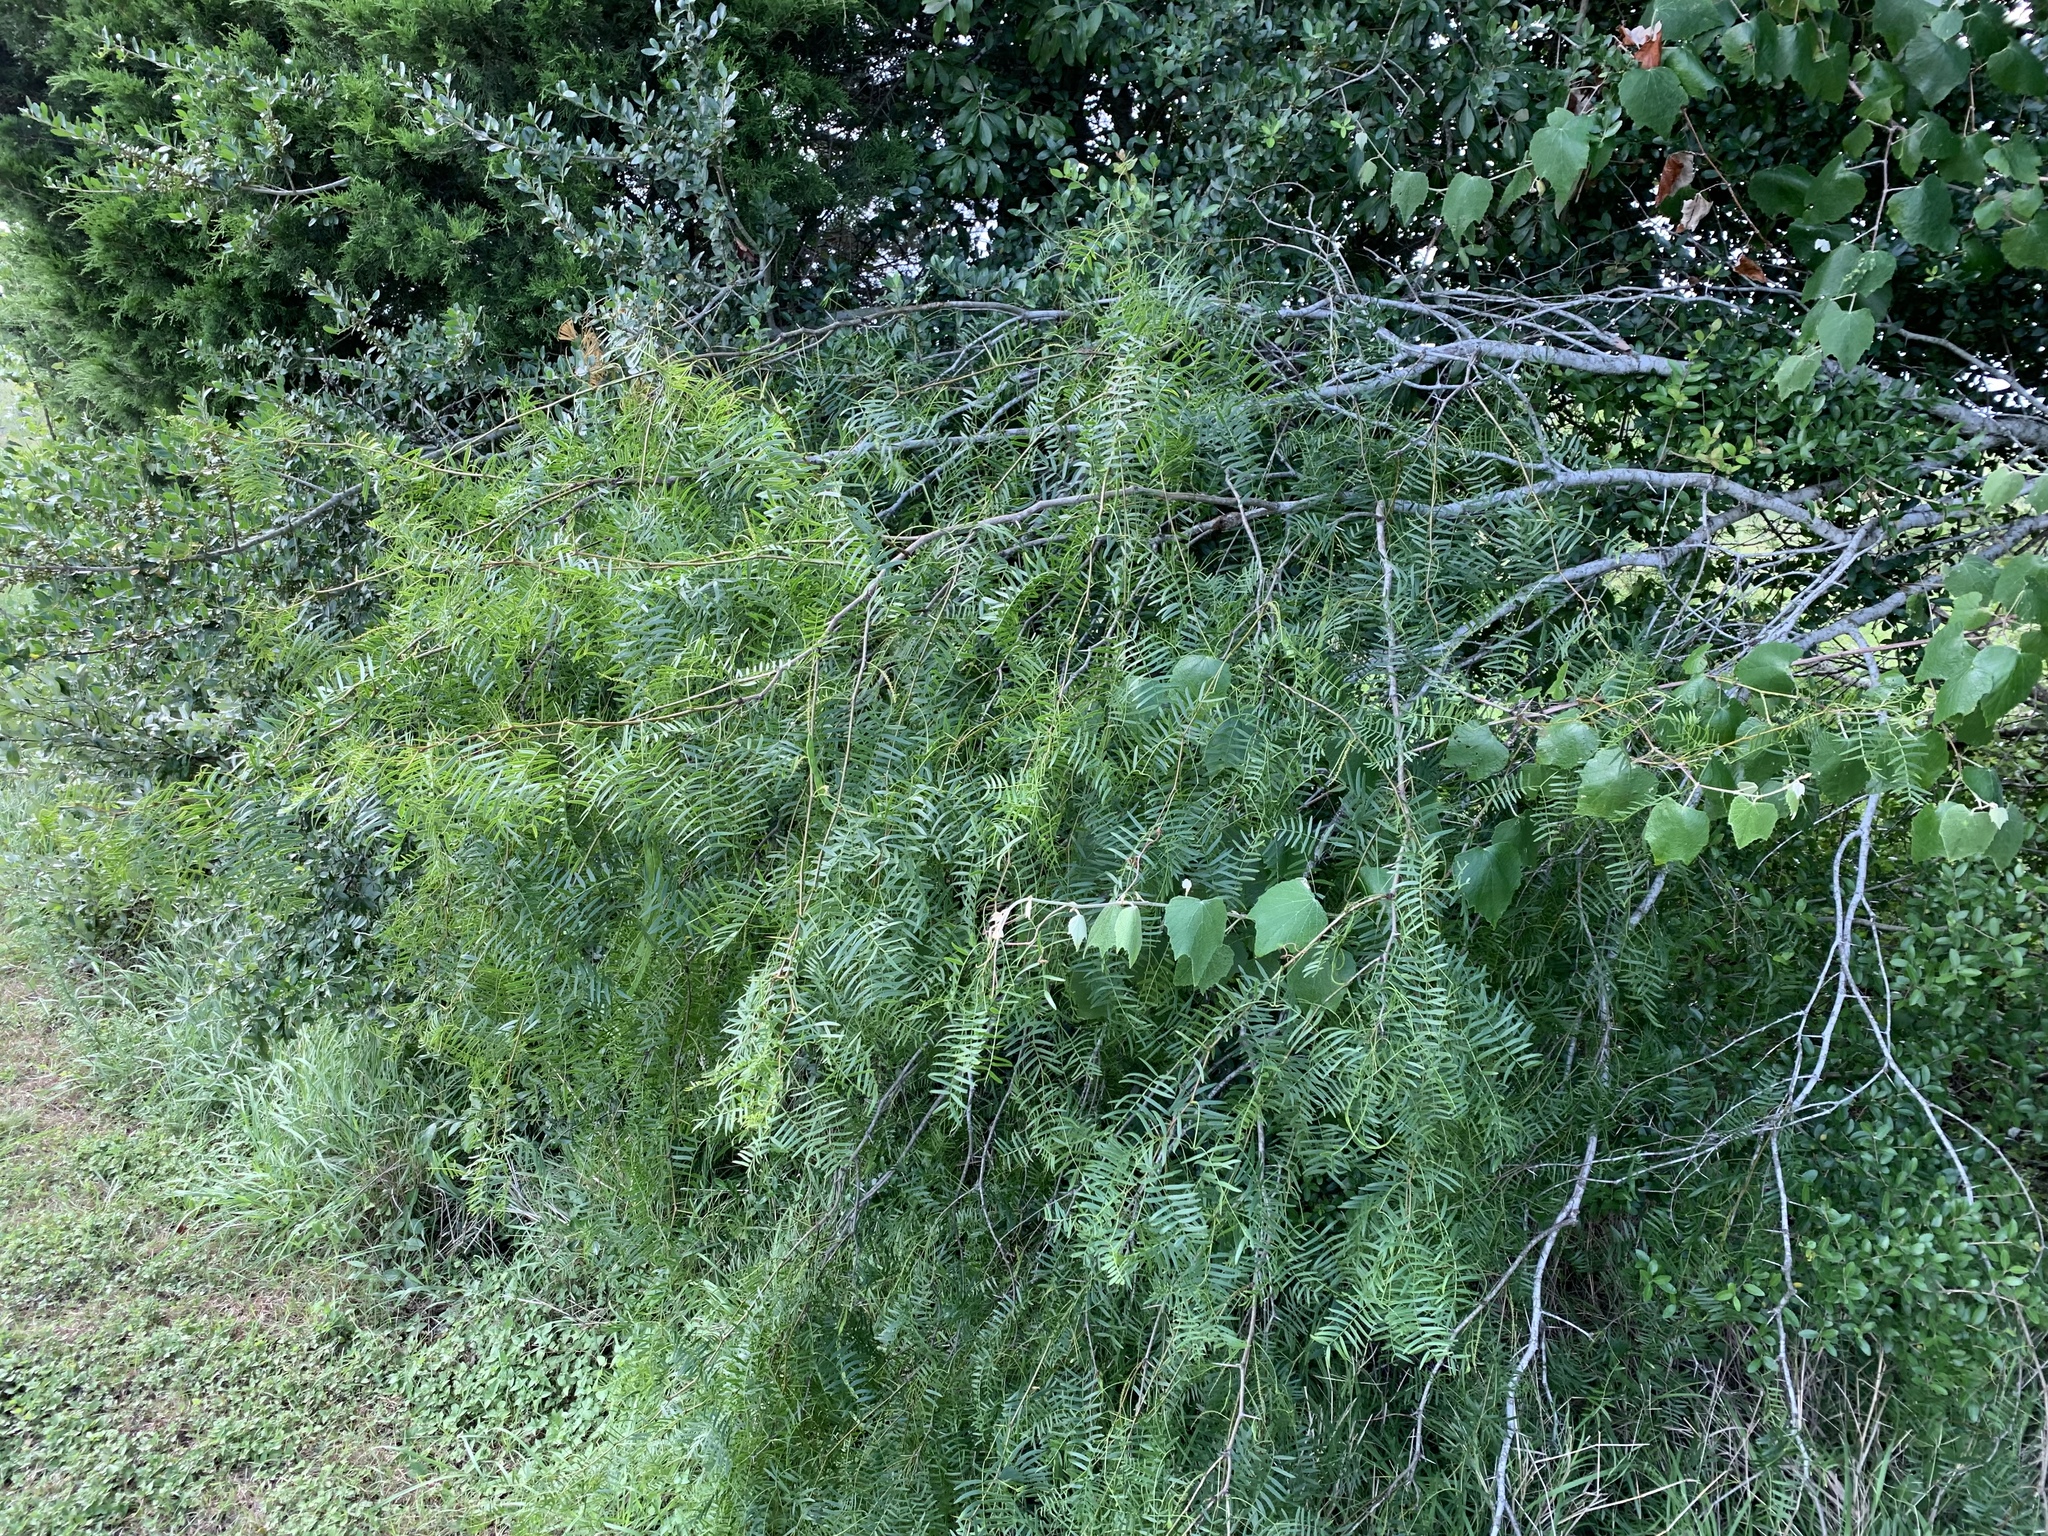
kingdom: Plantae
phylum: Tracheophyta
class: Magnoliopsida
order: Fabales
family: Fabaceae
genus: Prosopis
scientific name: Prosopis glandulosa
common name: Honey mesquite
